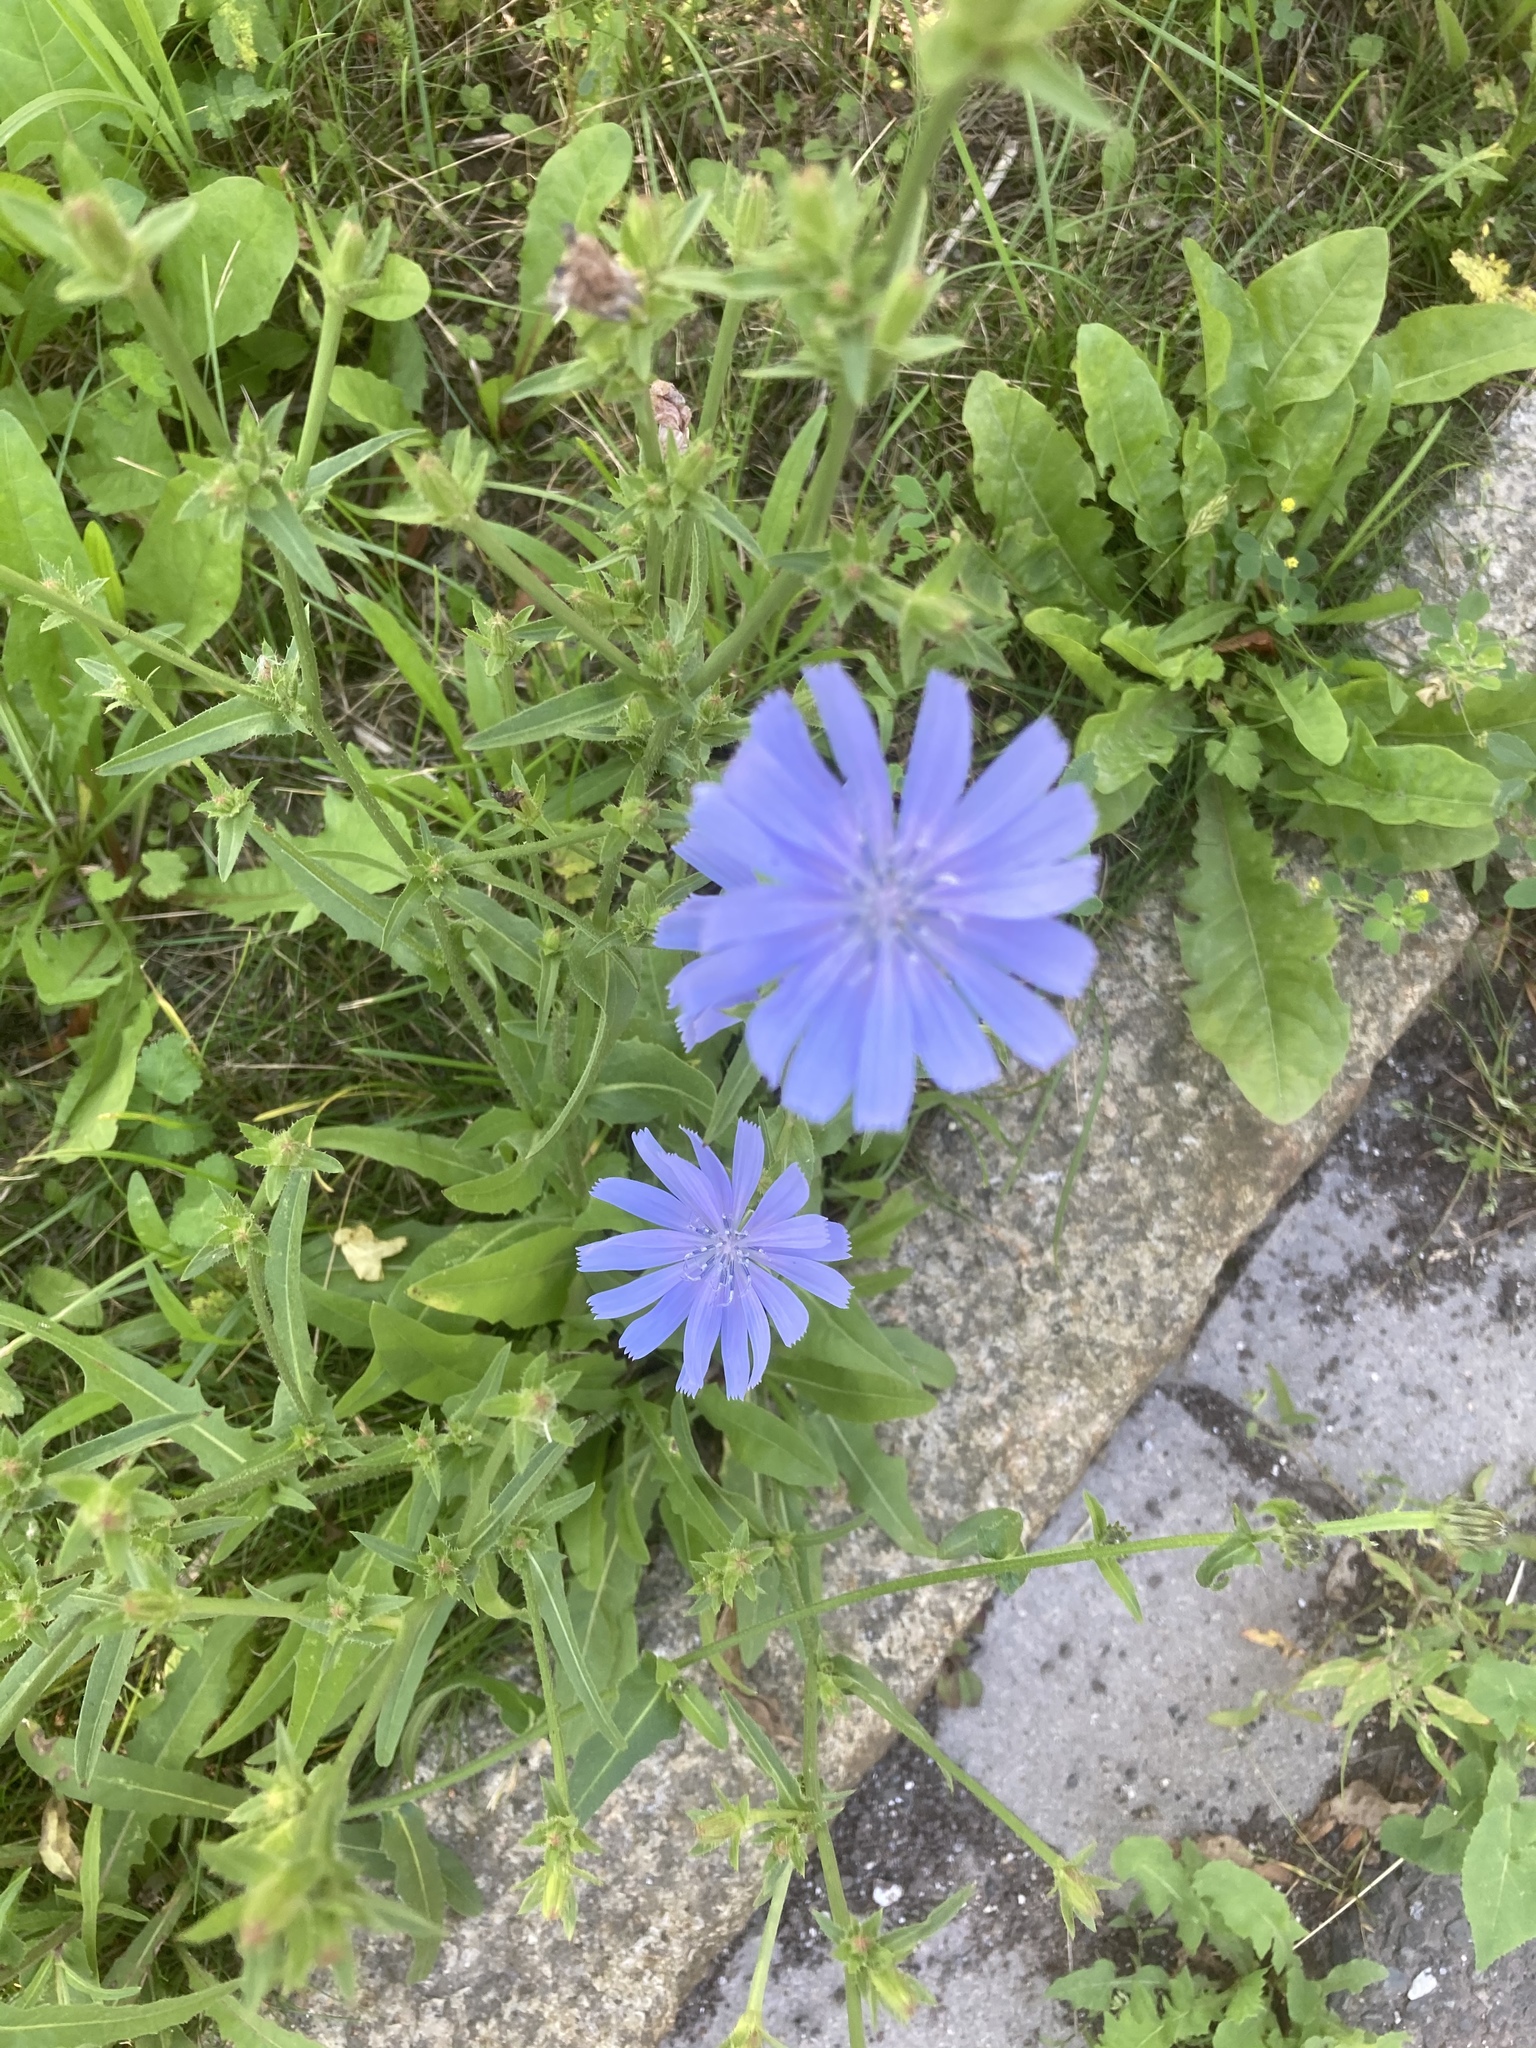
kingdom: Plantae
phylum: Tracheophyta
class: Magnoliopsida
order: Asterales
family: Asteraceae
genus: Cichorium
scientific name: Cichorium intybus
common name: Chicory
